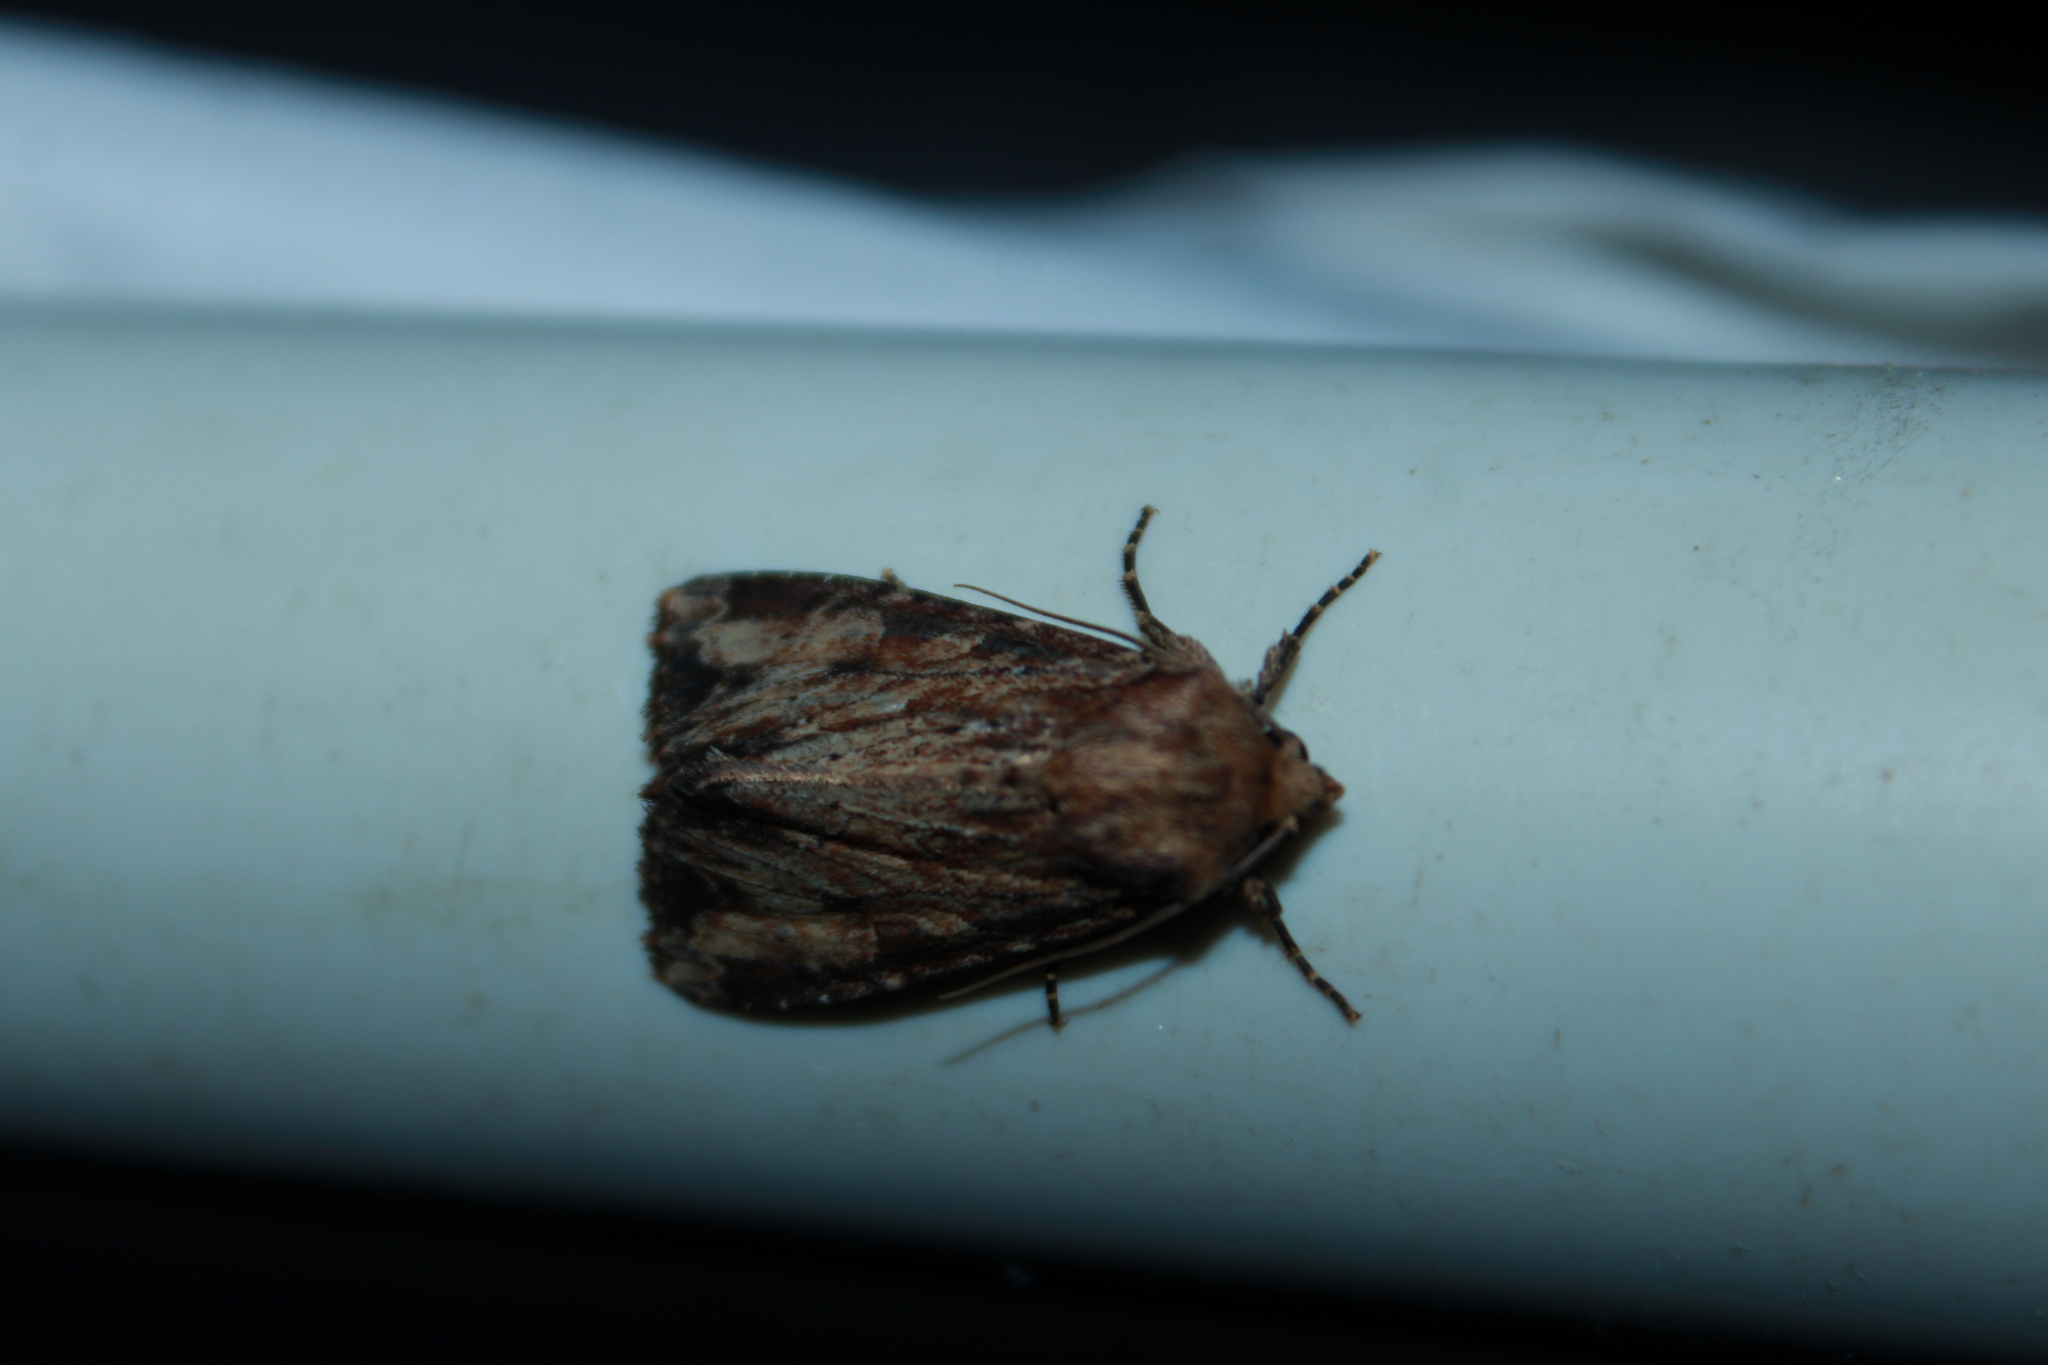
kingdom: Animalia
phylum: Arthropoda
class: Insecta
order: Lepidoptera
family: Noctuidae
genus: Apamea
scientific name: Apamea lignicolora
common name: Wood-colored apamea moth
